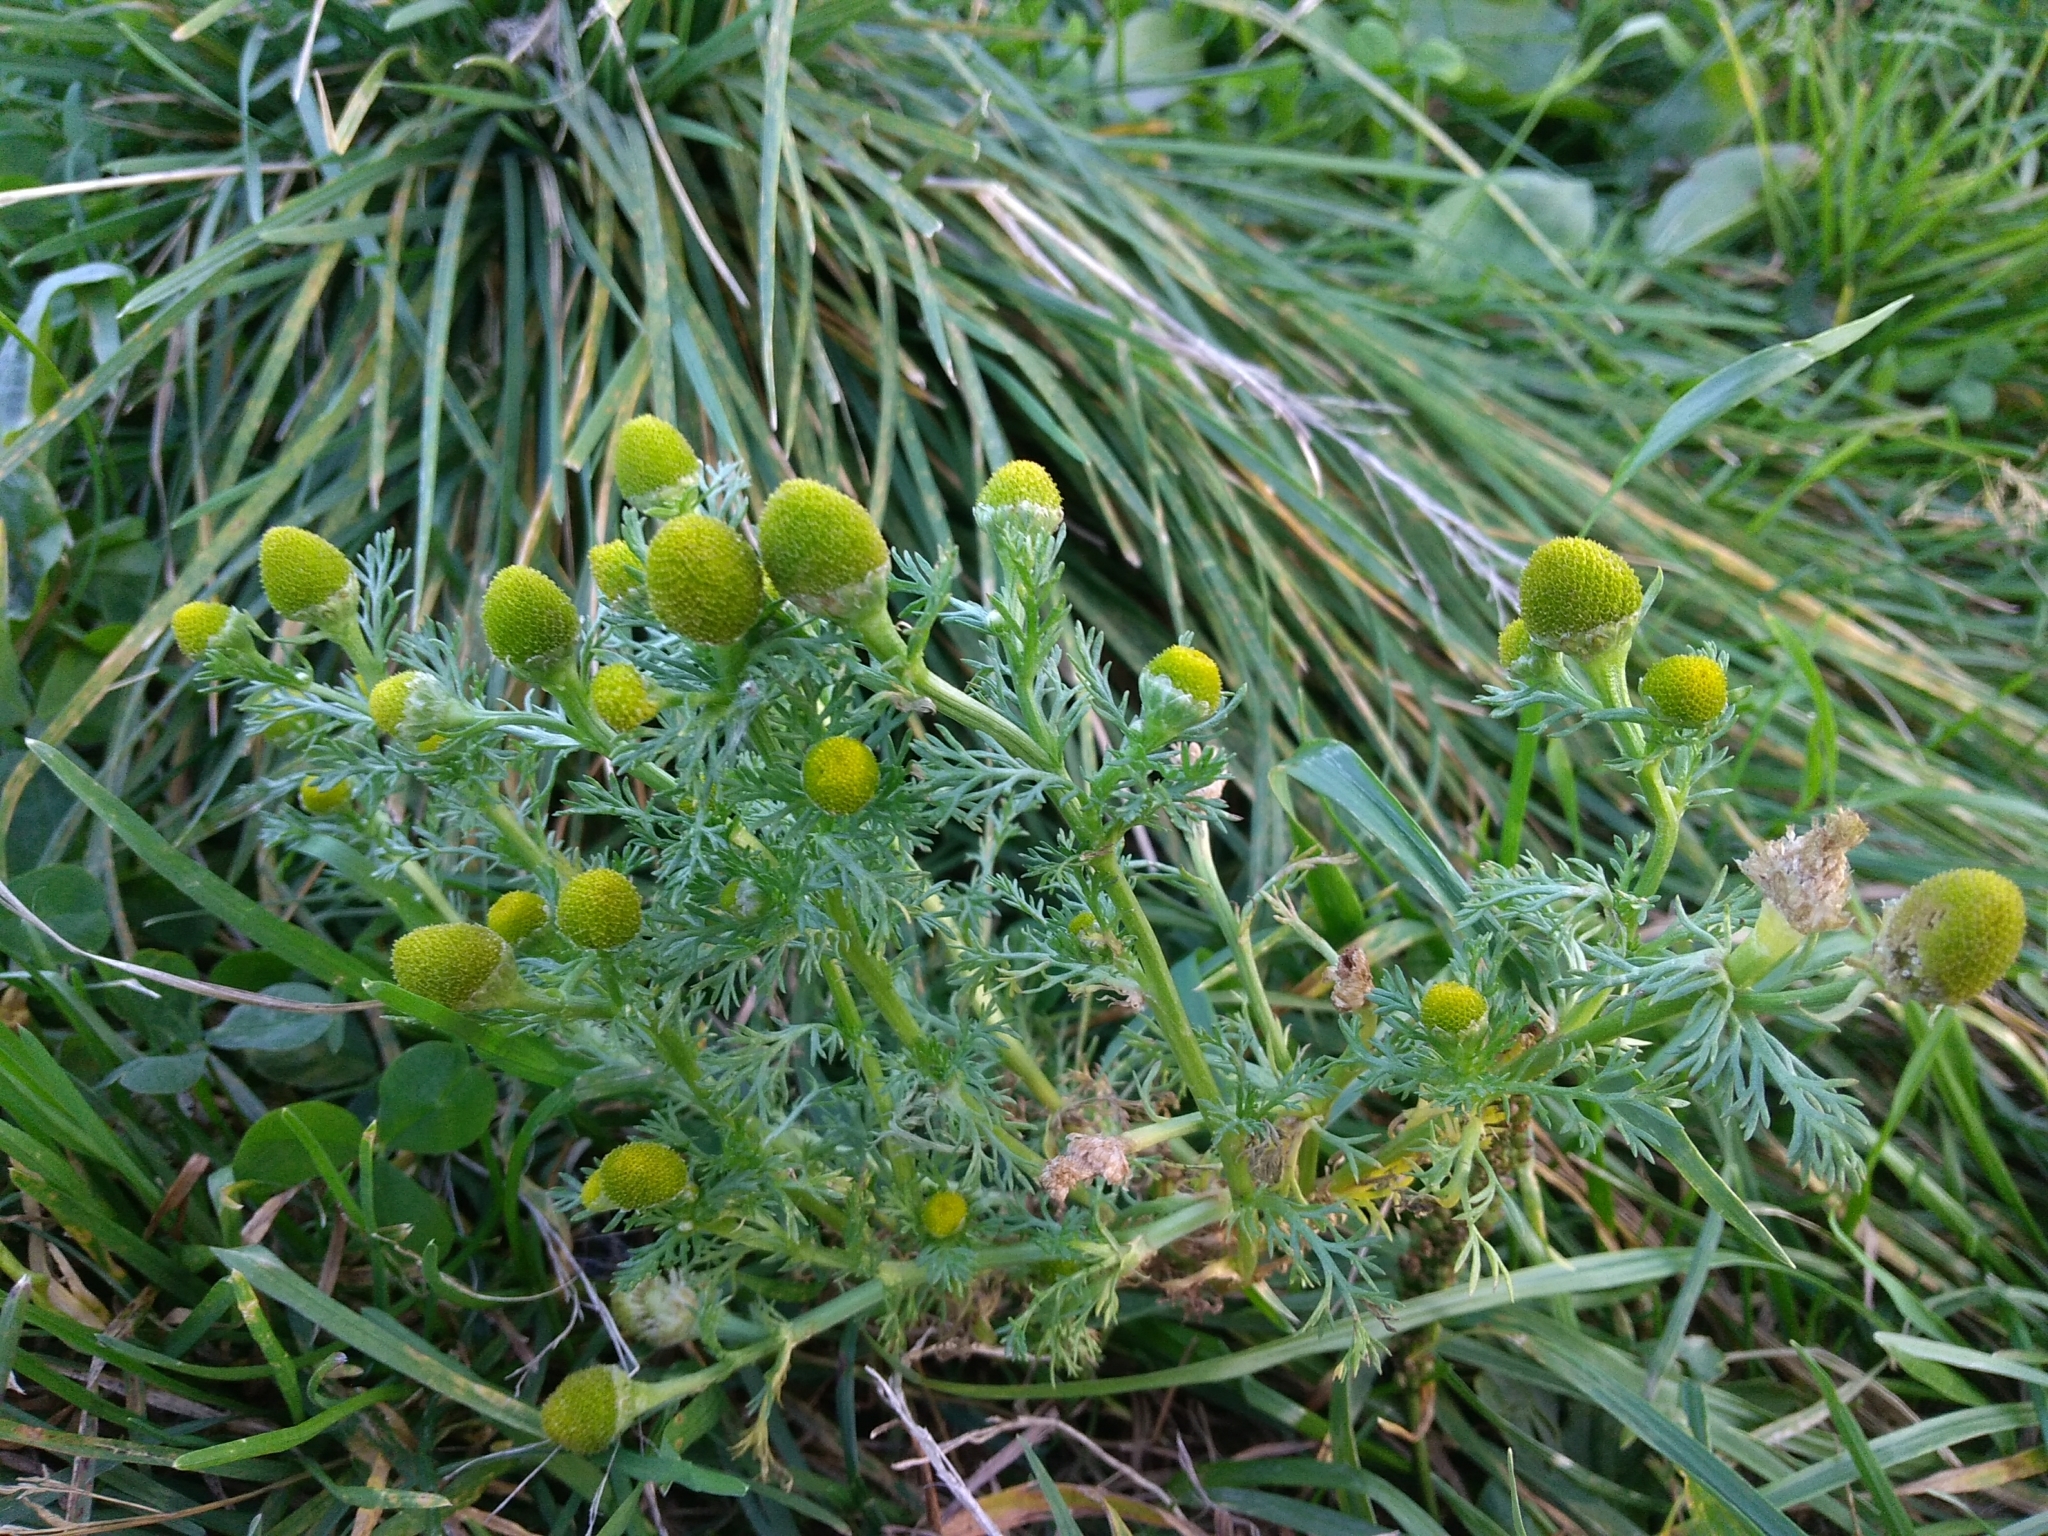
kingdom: Plantae
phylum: Tracheophyta
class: Magnoliopsida
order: Asterales
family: Asteraceae
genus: Matricaria
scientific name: Matricaria discoidea
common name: Disc mayweed
